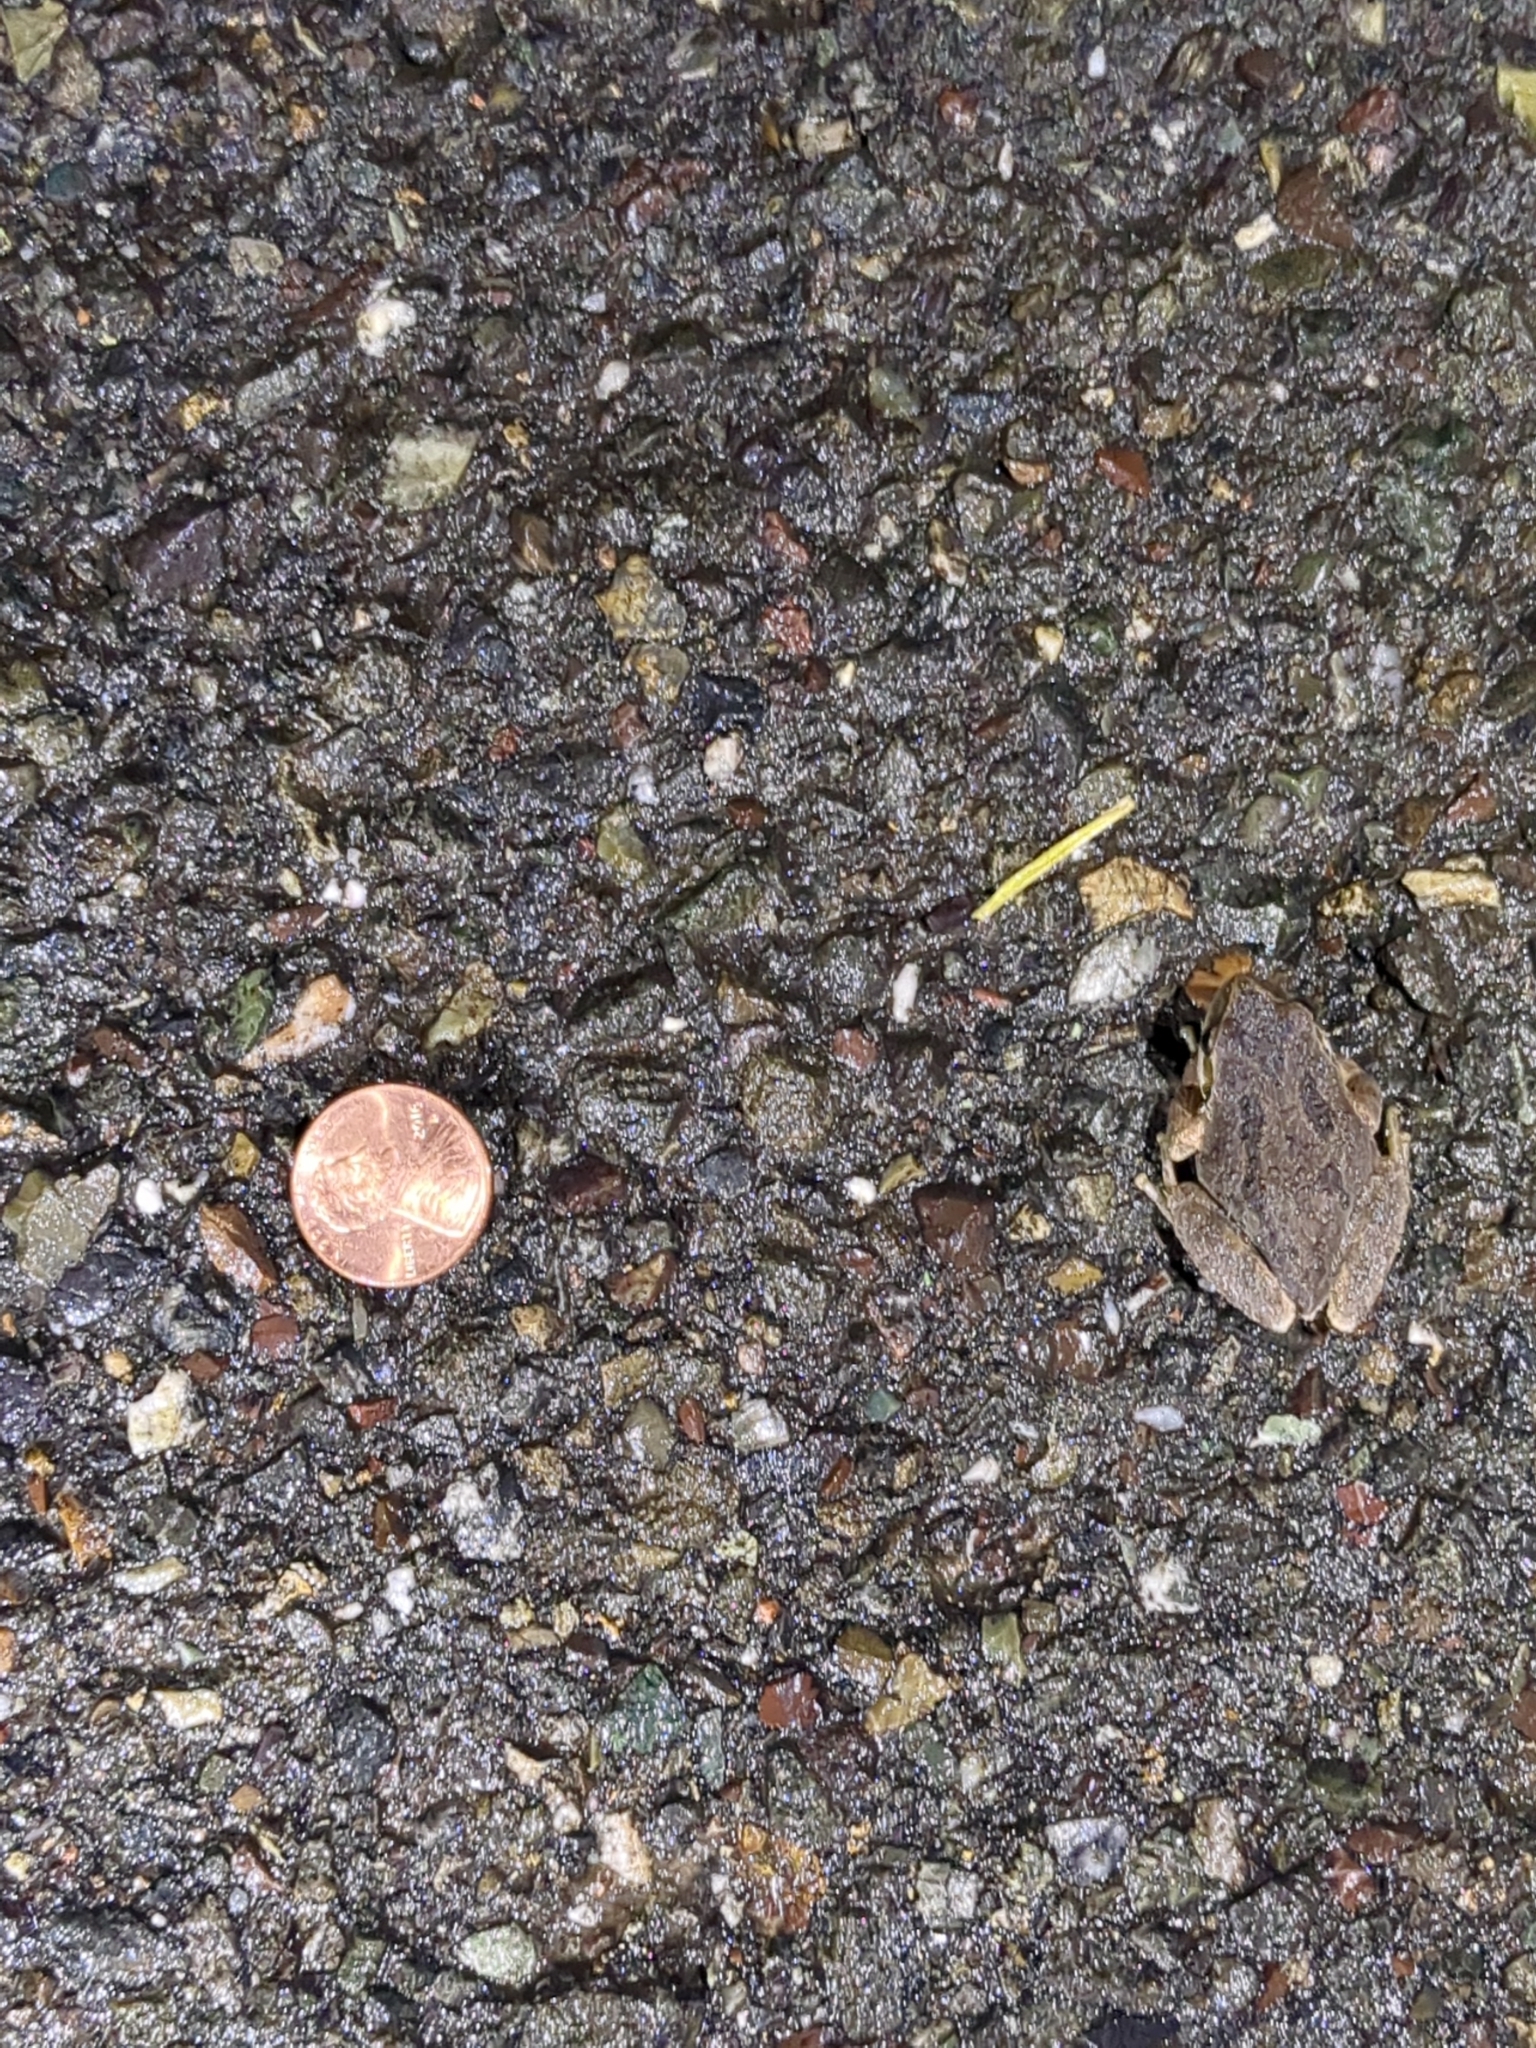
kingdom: Animalia
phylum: Chordata
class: Amphibia
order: Anura
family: Hylidae
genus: Pseudacris
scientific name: Pseudacris regilla
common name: Pacific chorus frog
